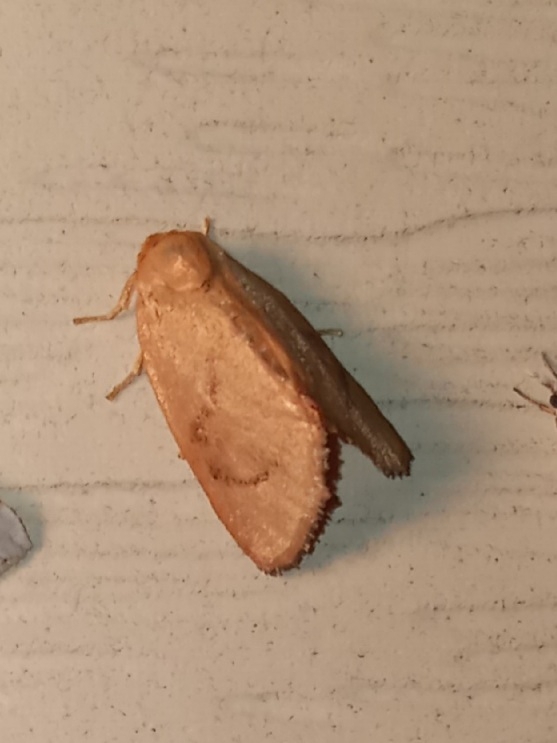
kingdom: Animalia
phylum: Arthropoda
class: Insecta
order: Lepidoptera
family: Limacodidae
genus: Tortricidia
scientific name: Tortricidia pallida
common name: Red-crossed button slug moth
